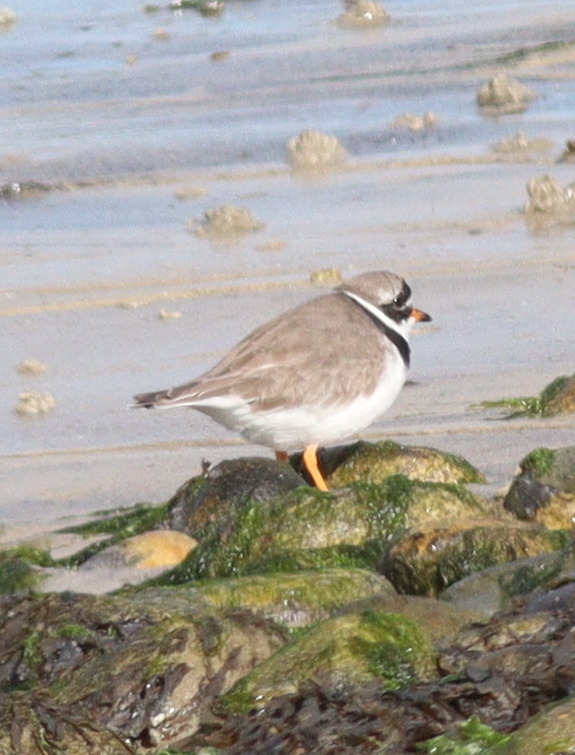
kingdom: Animalia
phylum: Chordata
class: Aves
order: Charadriiformes
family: Charadriidae
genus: Charadrius
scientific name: Charadrius hiaticula
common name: Common ringed plover
